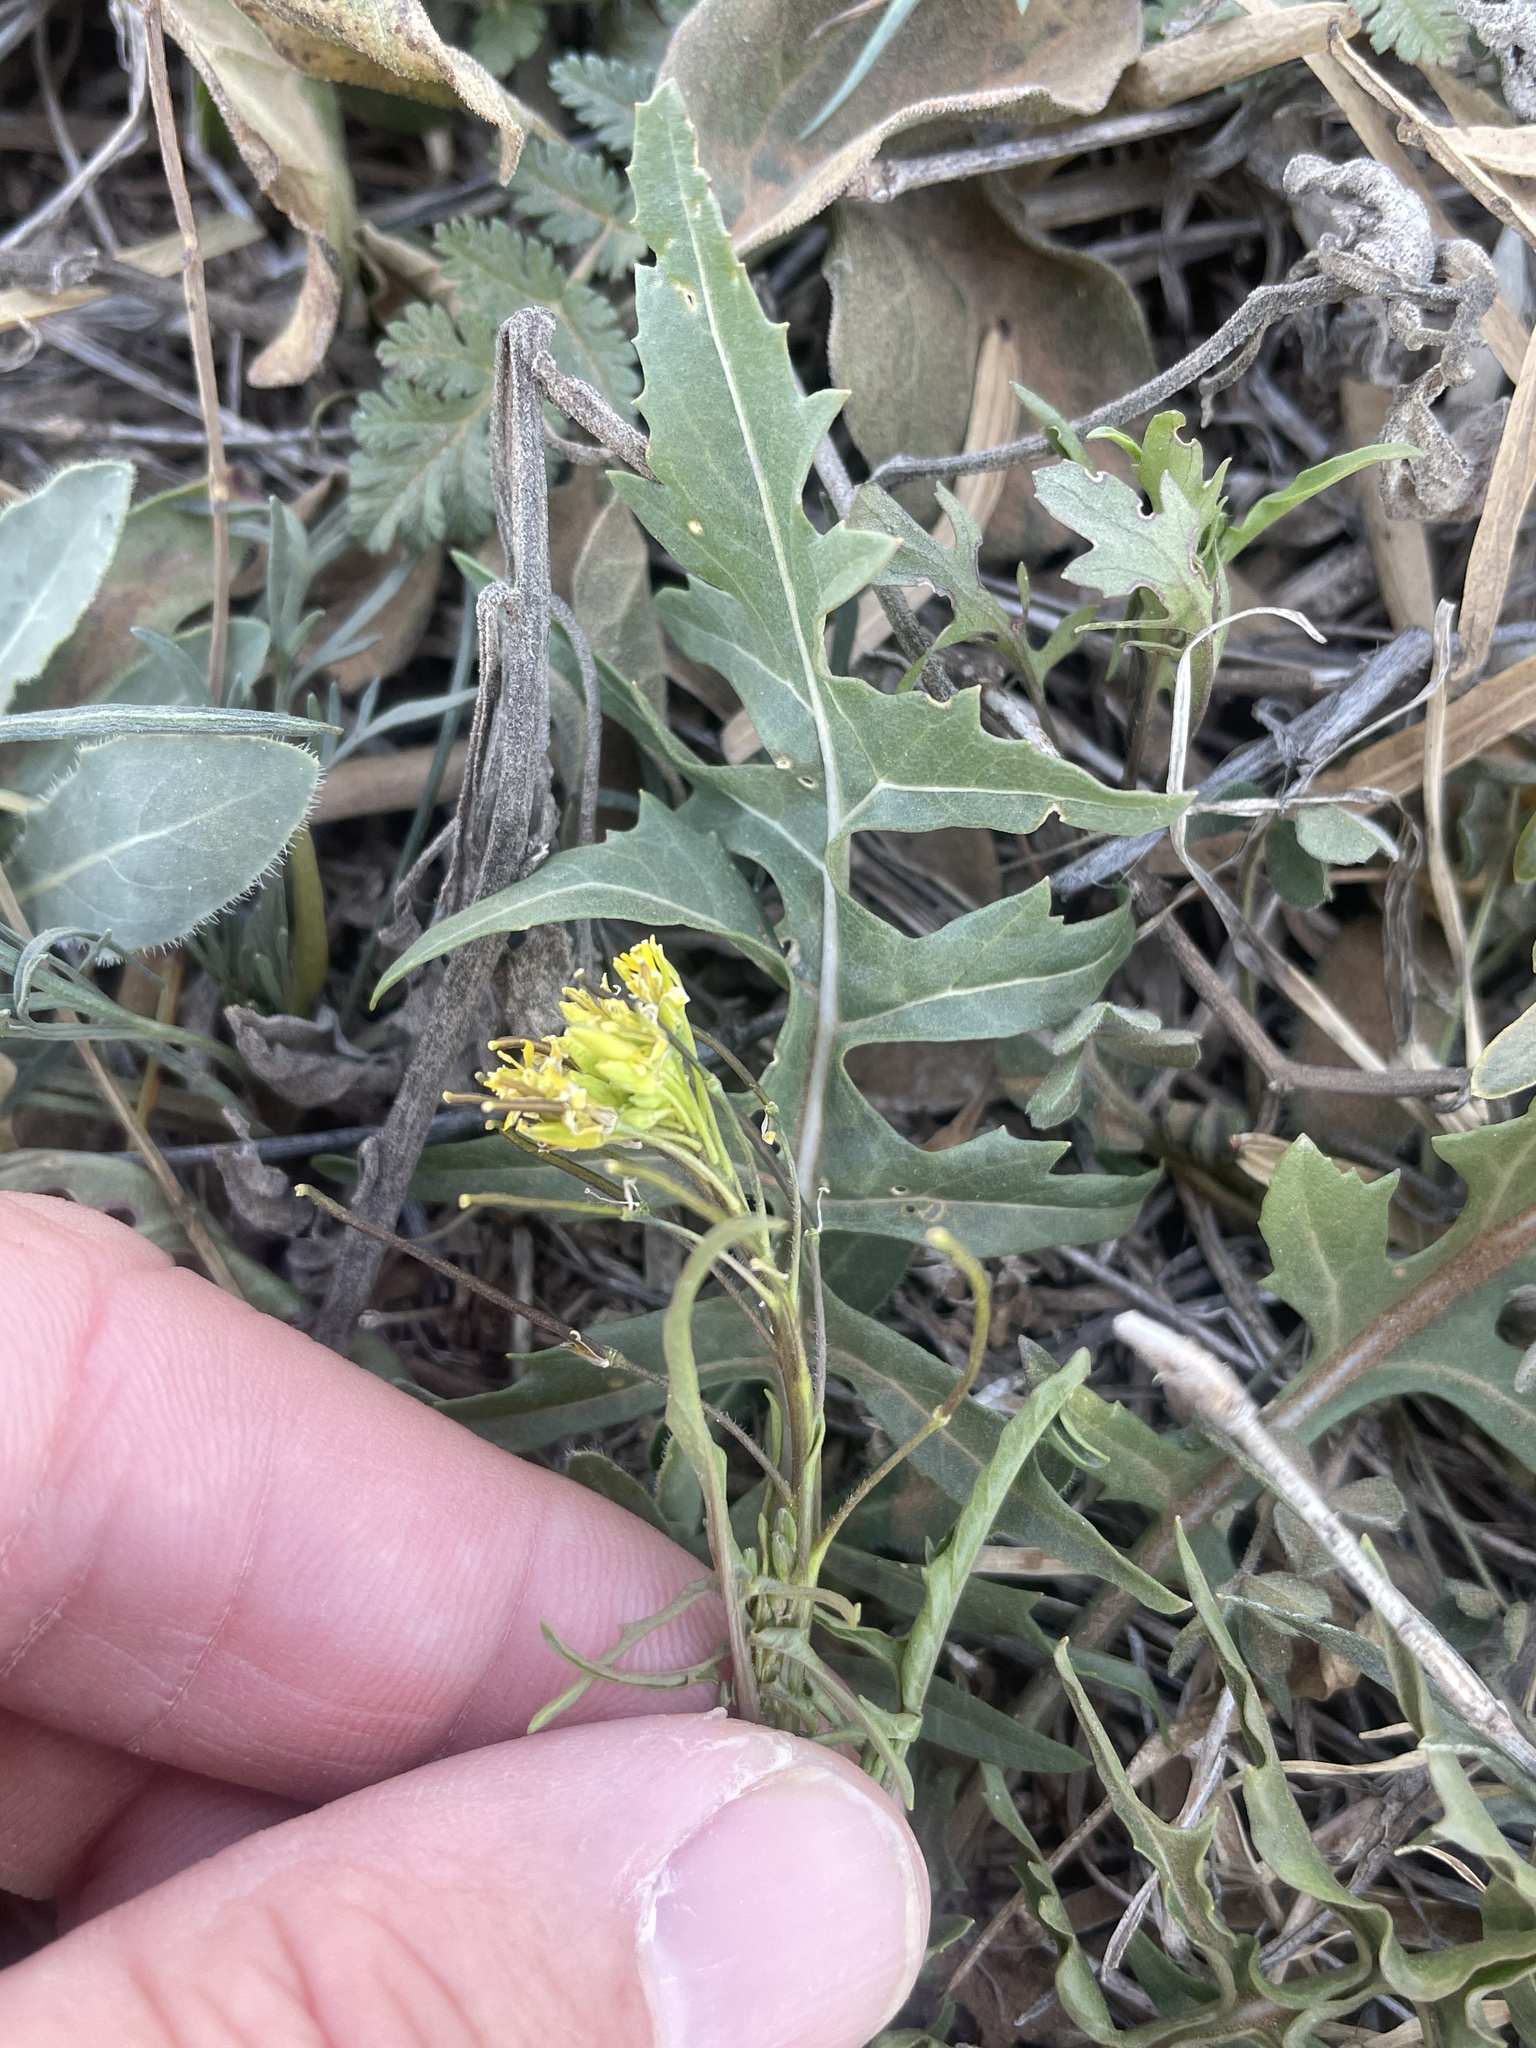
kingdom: Plantae
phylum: Tracheophyta
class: Magnoliopsida
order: Brassicales
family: Brassicaceae
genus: Sisymbrium
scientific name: Sisymbrium irio
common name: London rocket
